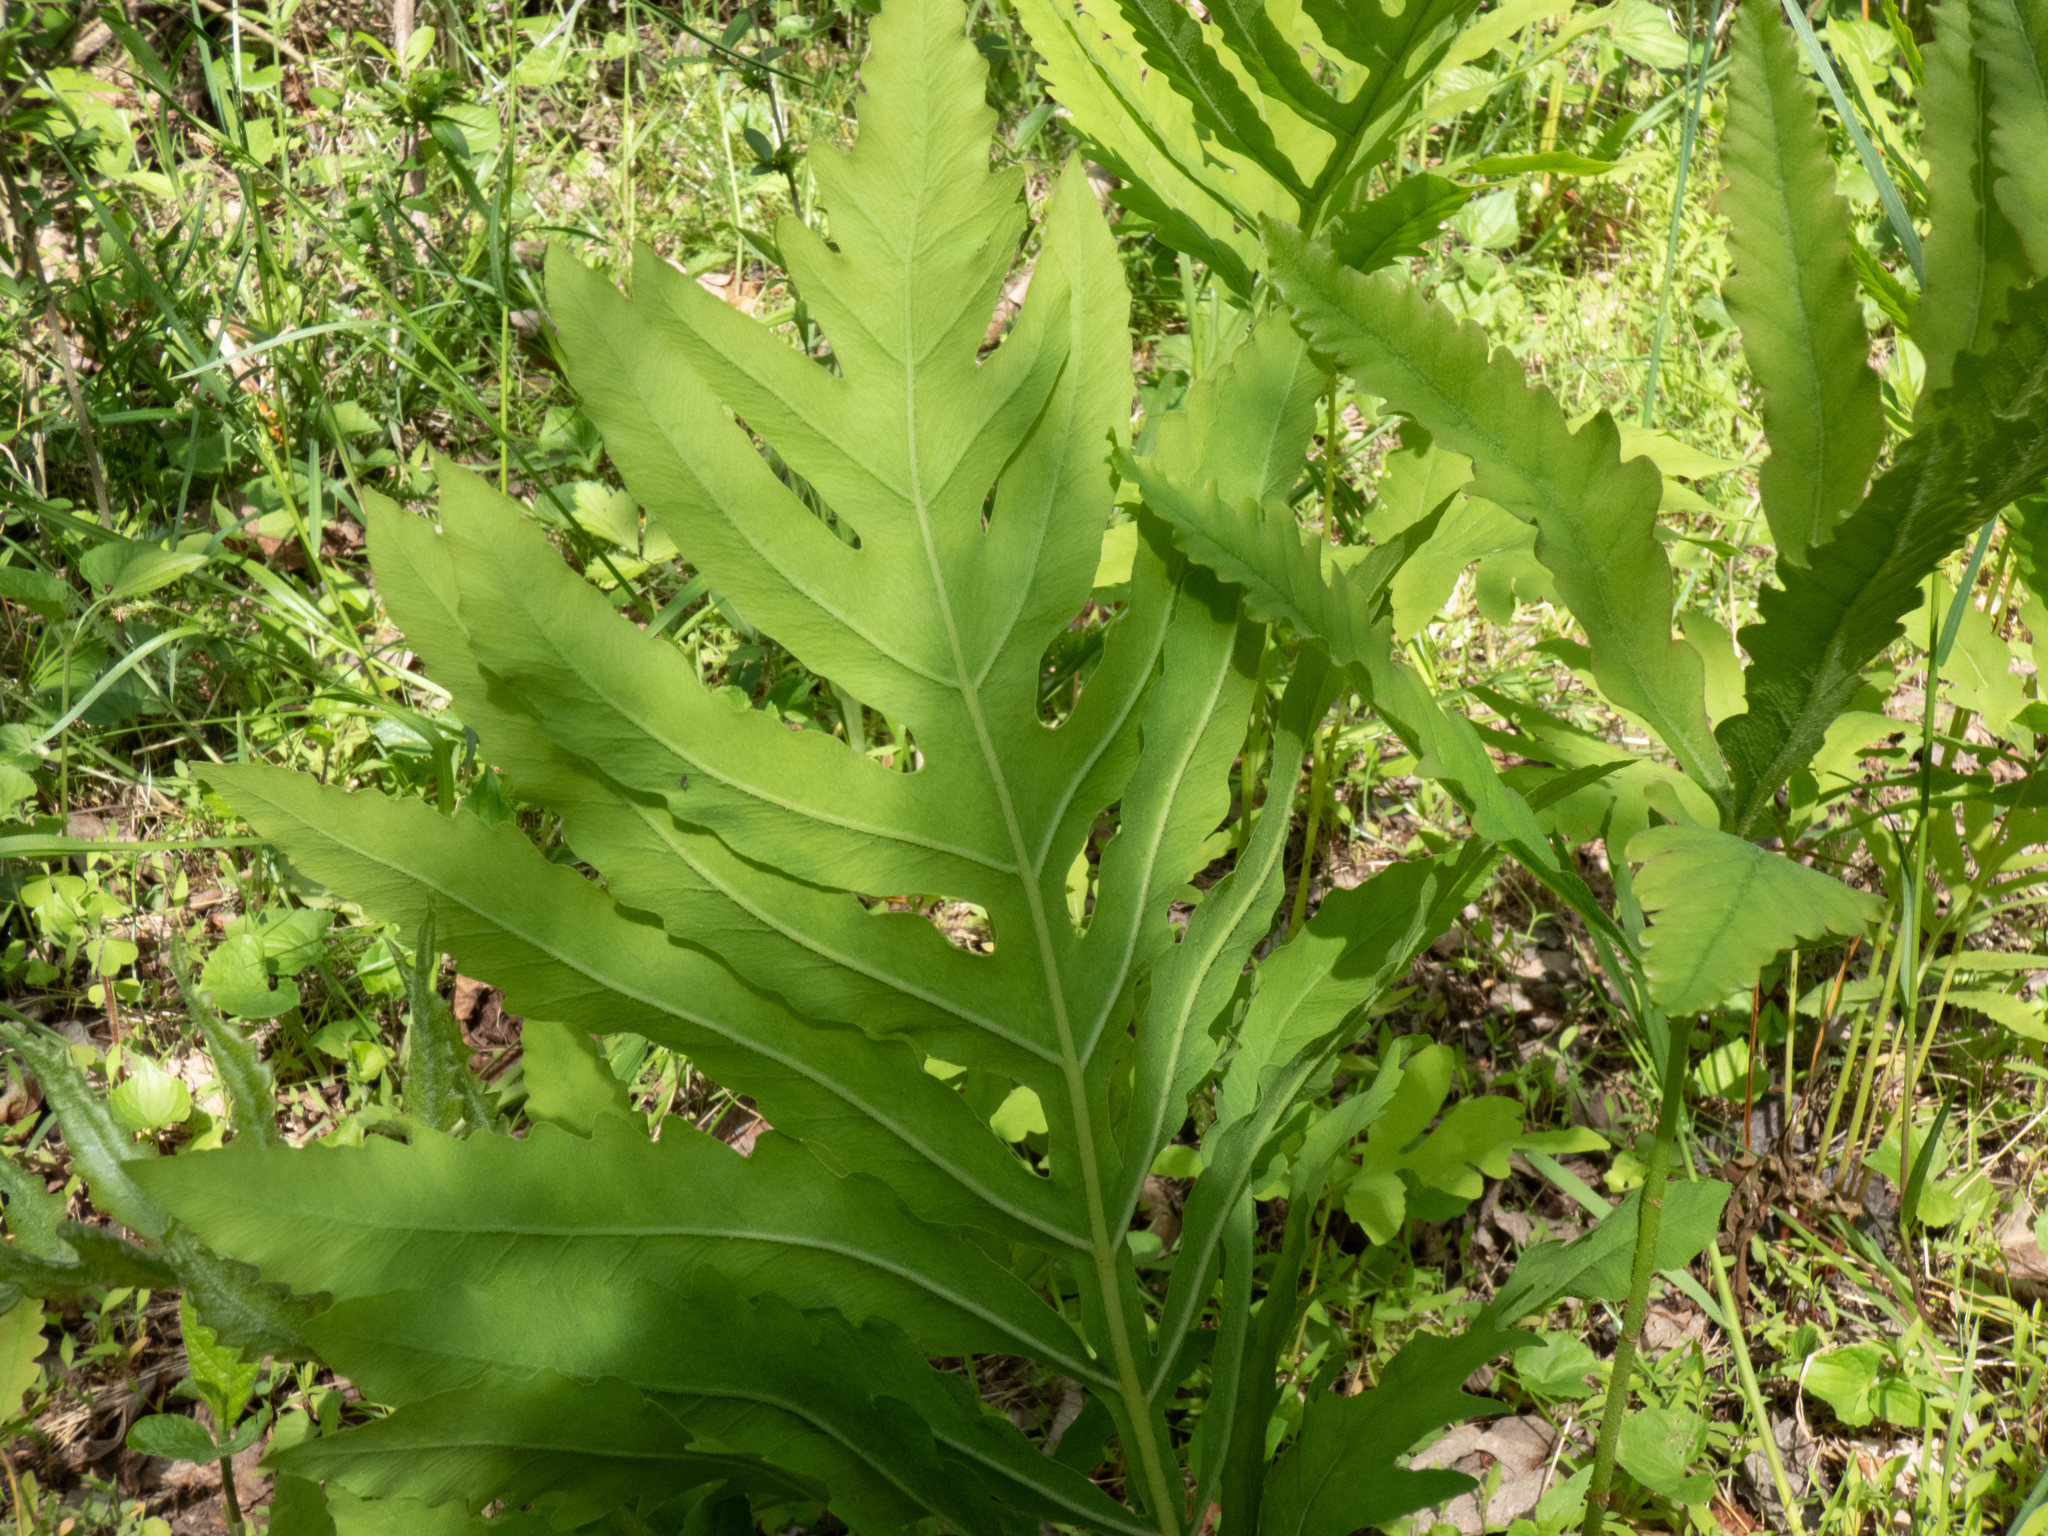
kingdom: Plantae
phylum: Tracheophyta
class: Polypodiopsida
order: Polypodiales
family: Onocleaceae
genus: Onoclea
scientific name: Onoclea sensibilis
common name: Sensitive fern
